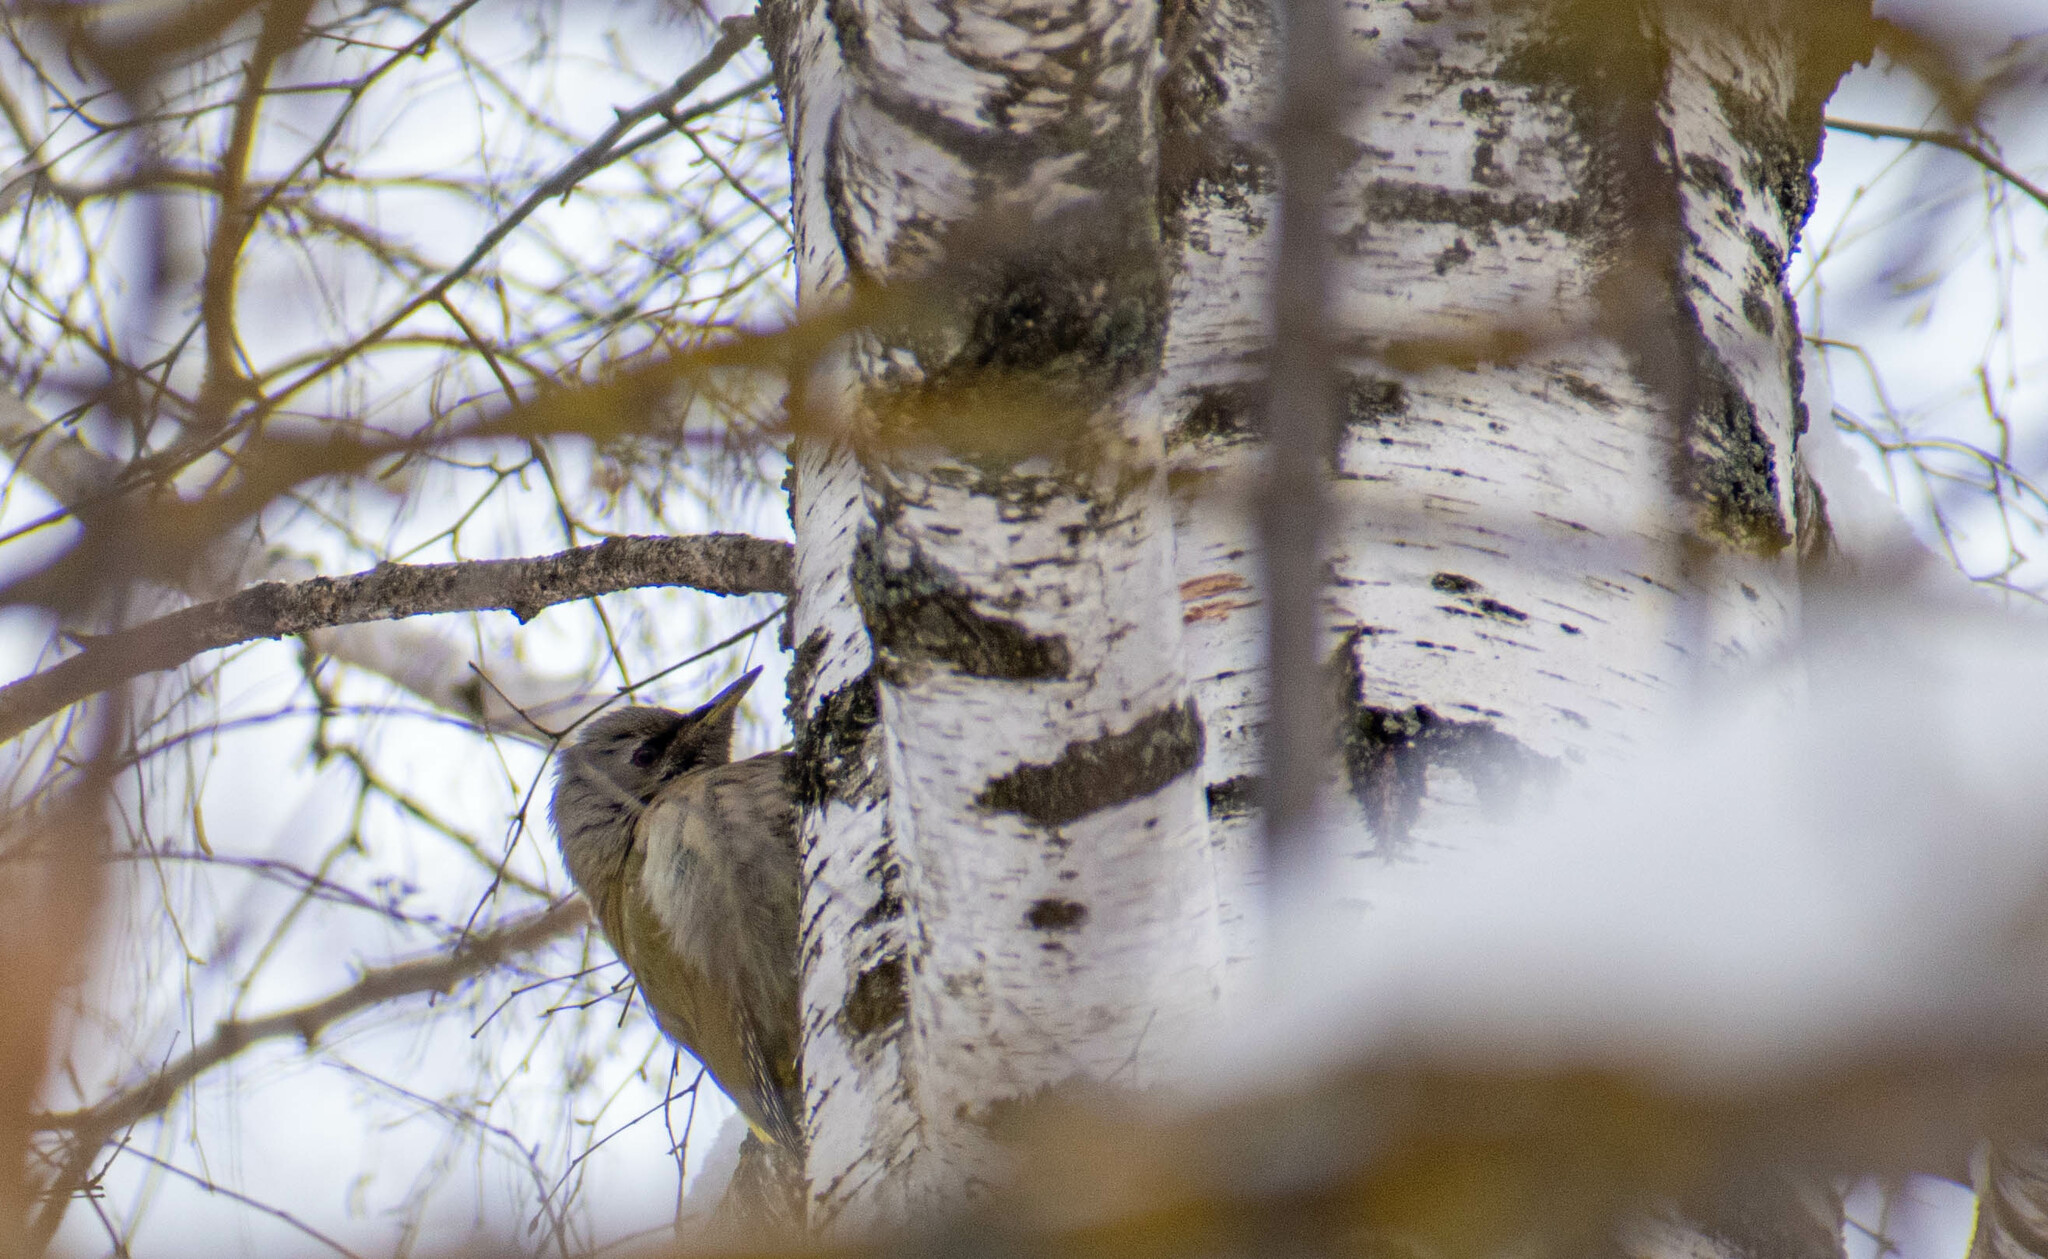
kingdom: Animalia
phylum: Chordata
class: Aves
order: Piciformes
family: Picidae
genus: Picus
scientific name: Picus canus
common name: Grey-headed woodpecker
